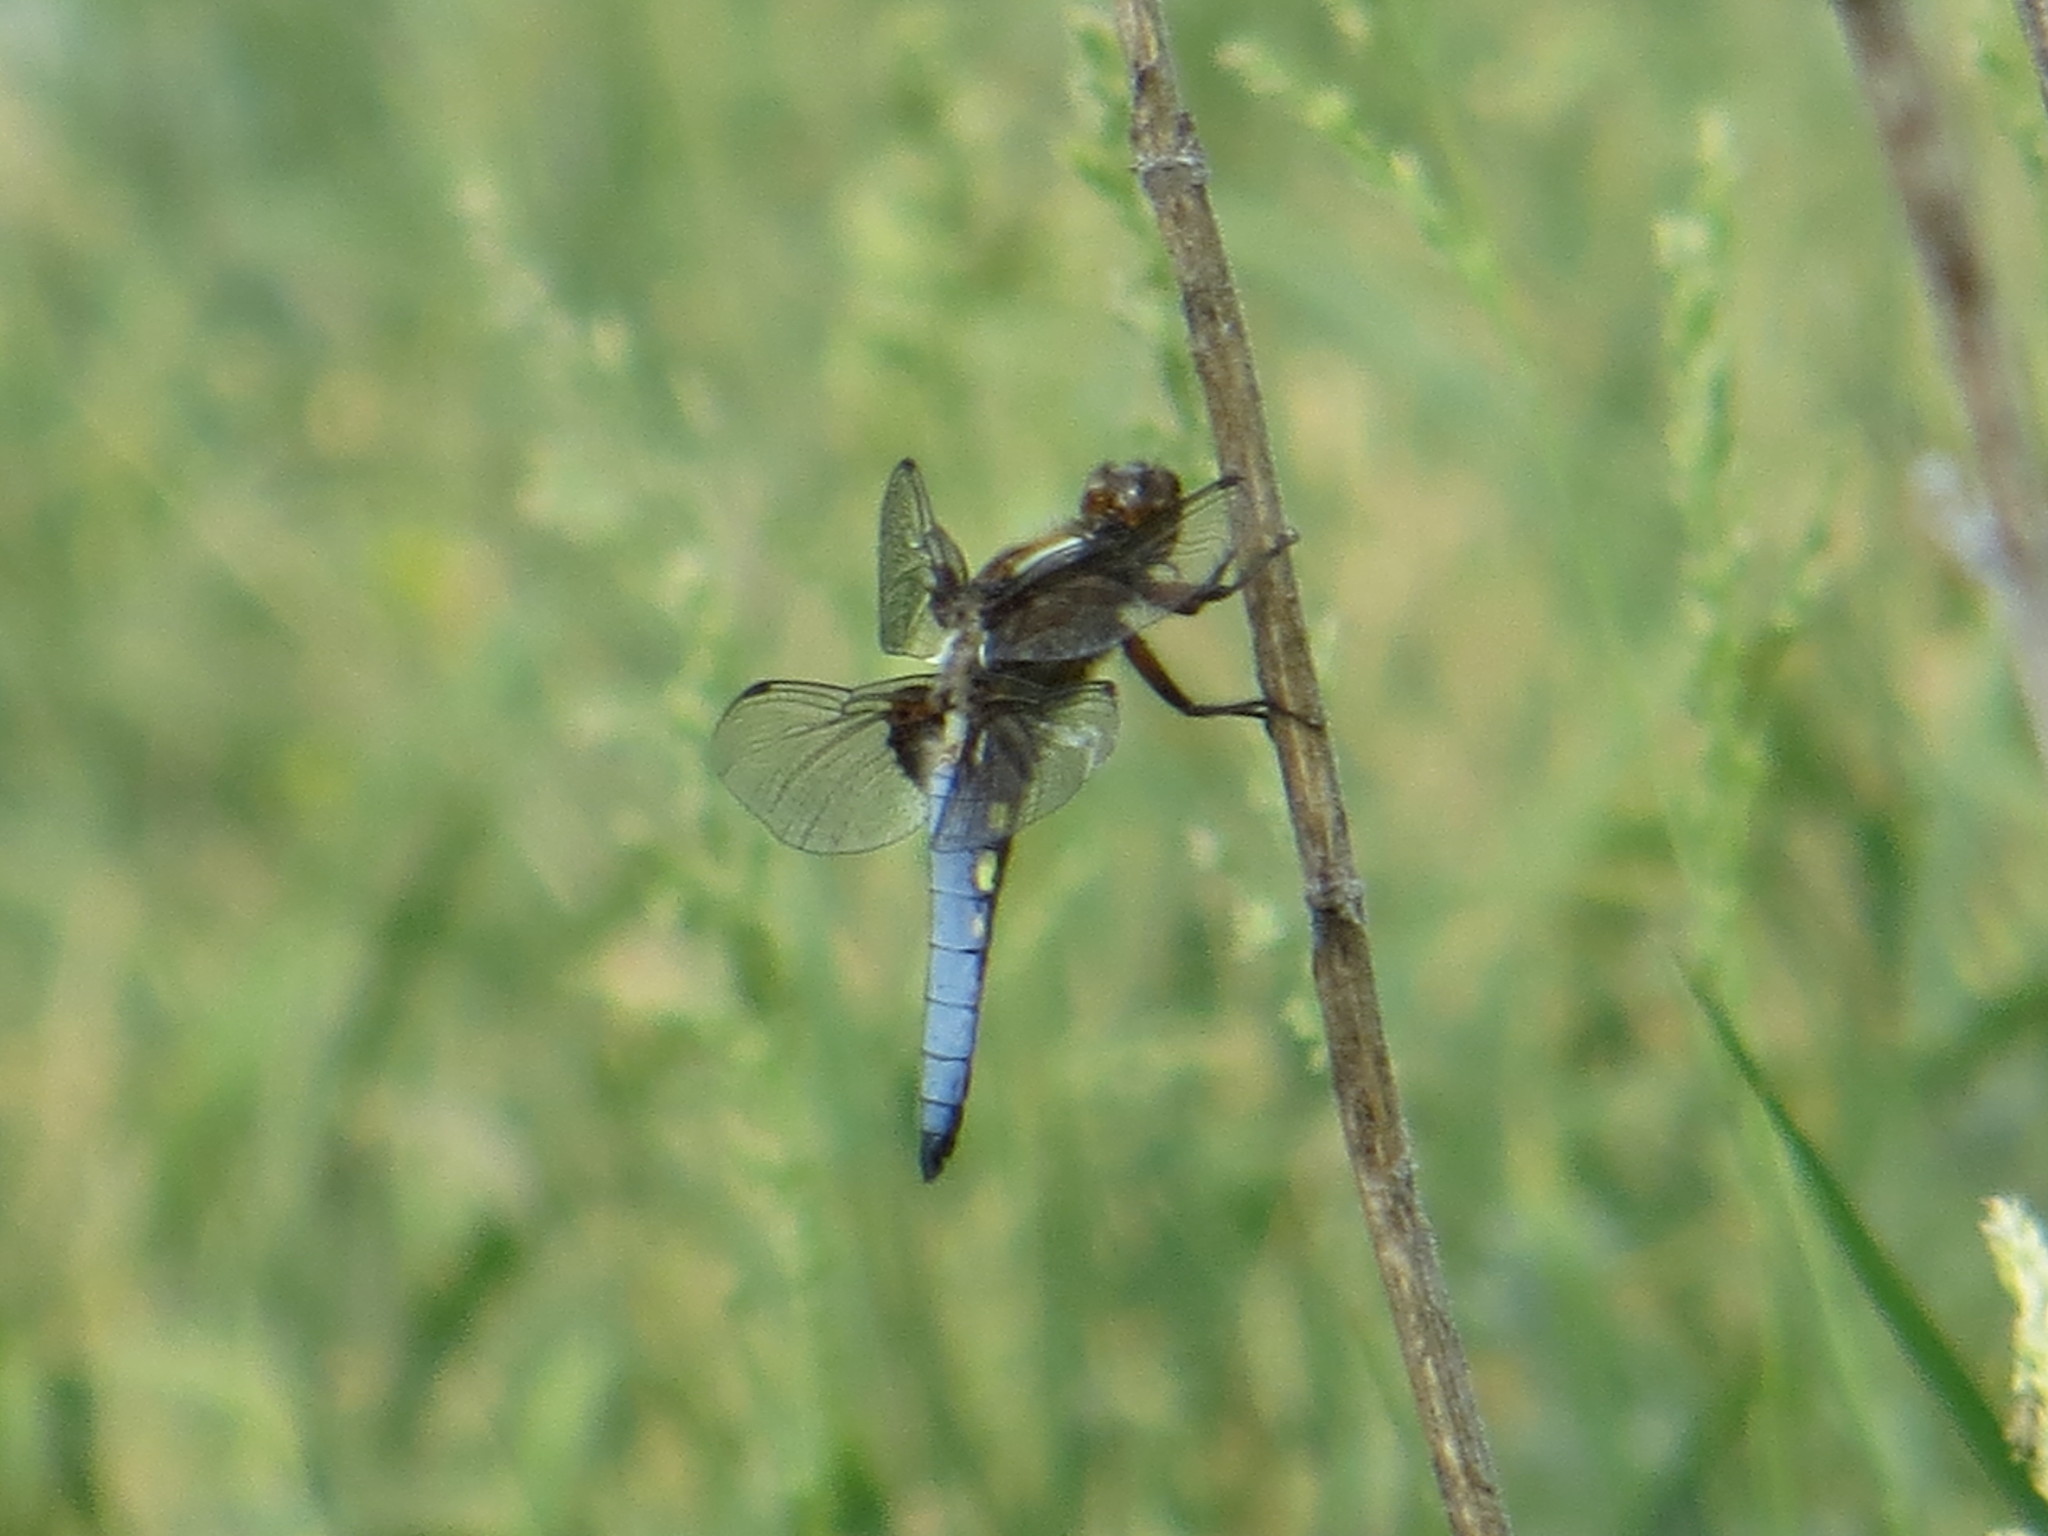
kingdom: Animalia
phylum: Arthropoda
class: Insecta
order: Odonata
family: Libellulidae
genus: Libellula
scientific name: Libellula depressa
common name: Broad-bodied chaser
